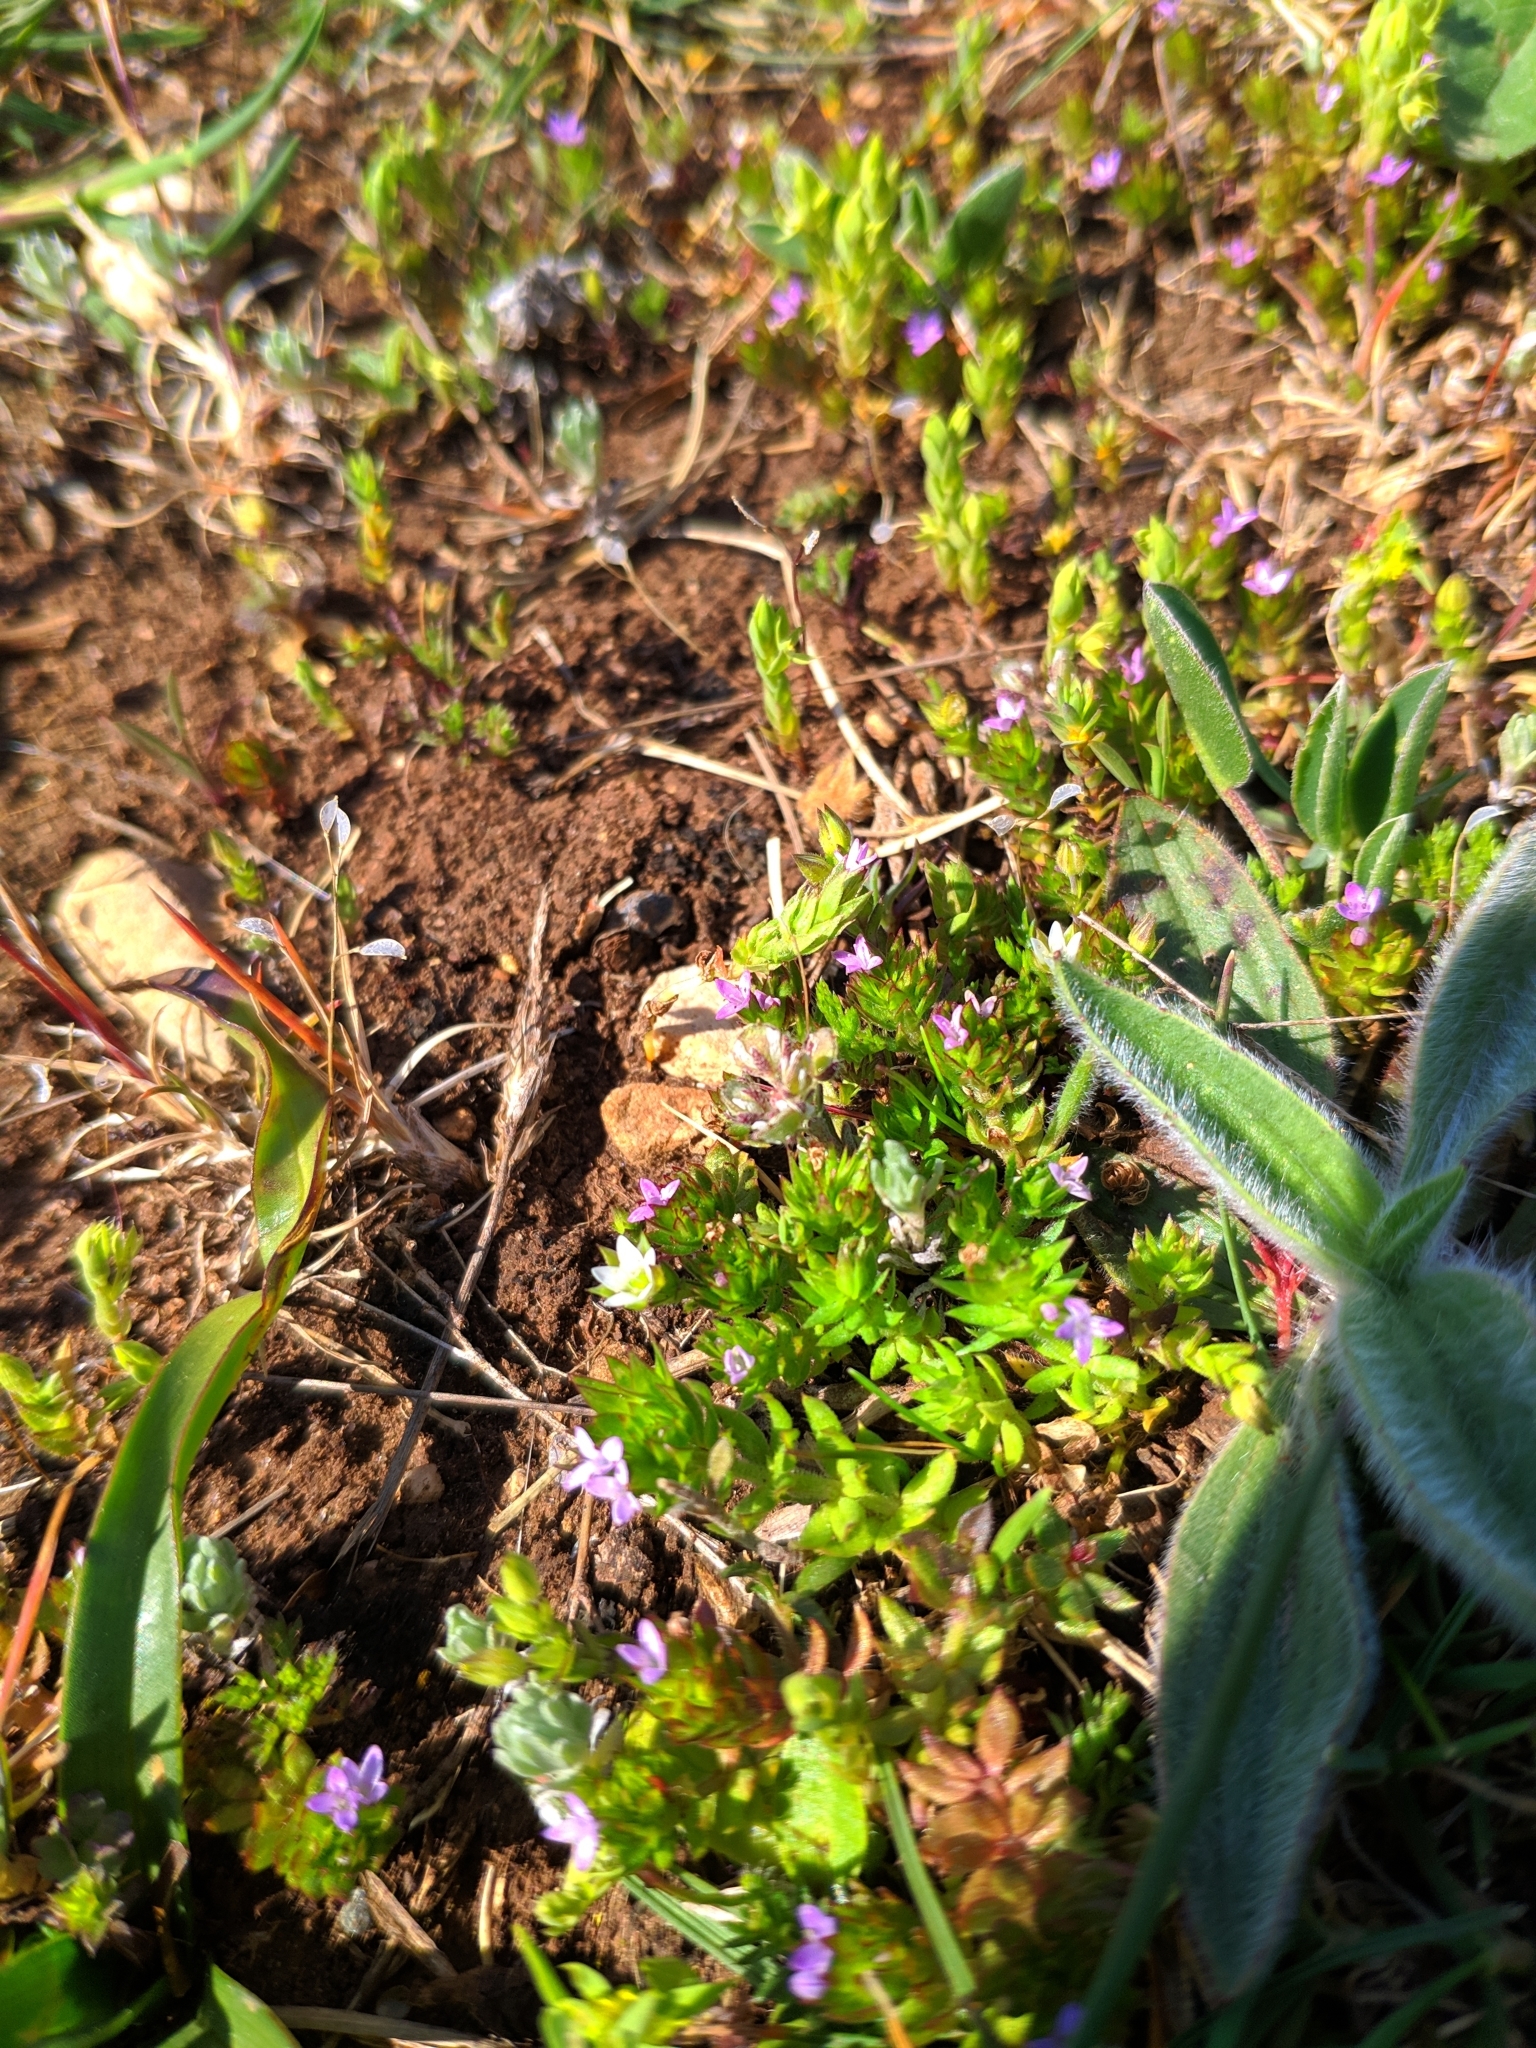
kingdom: Plantae
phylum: Tracheophyta
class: Magnoliopsida
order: Gentianales
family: Rubiaceae
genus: Sherardia
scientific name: Sherardia arvensis
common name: Field madder
